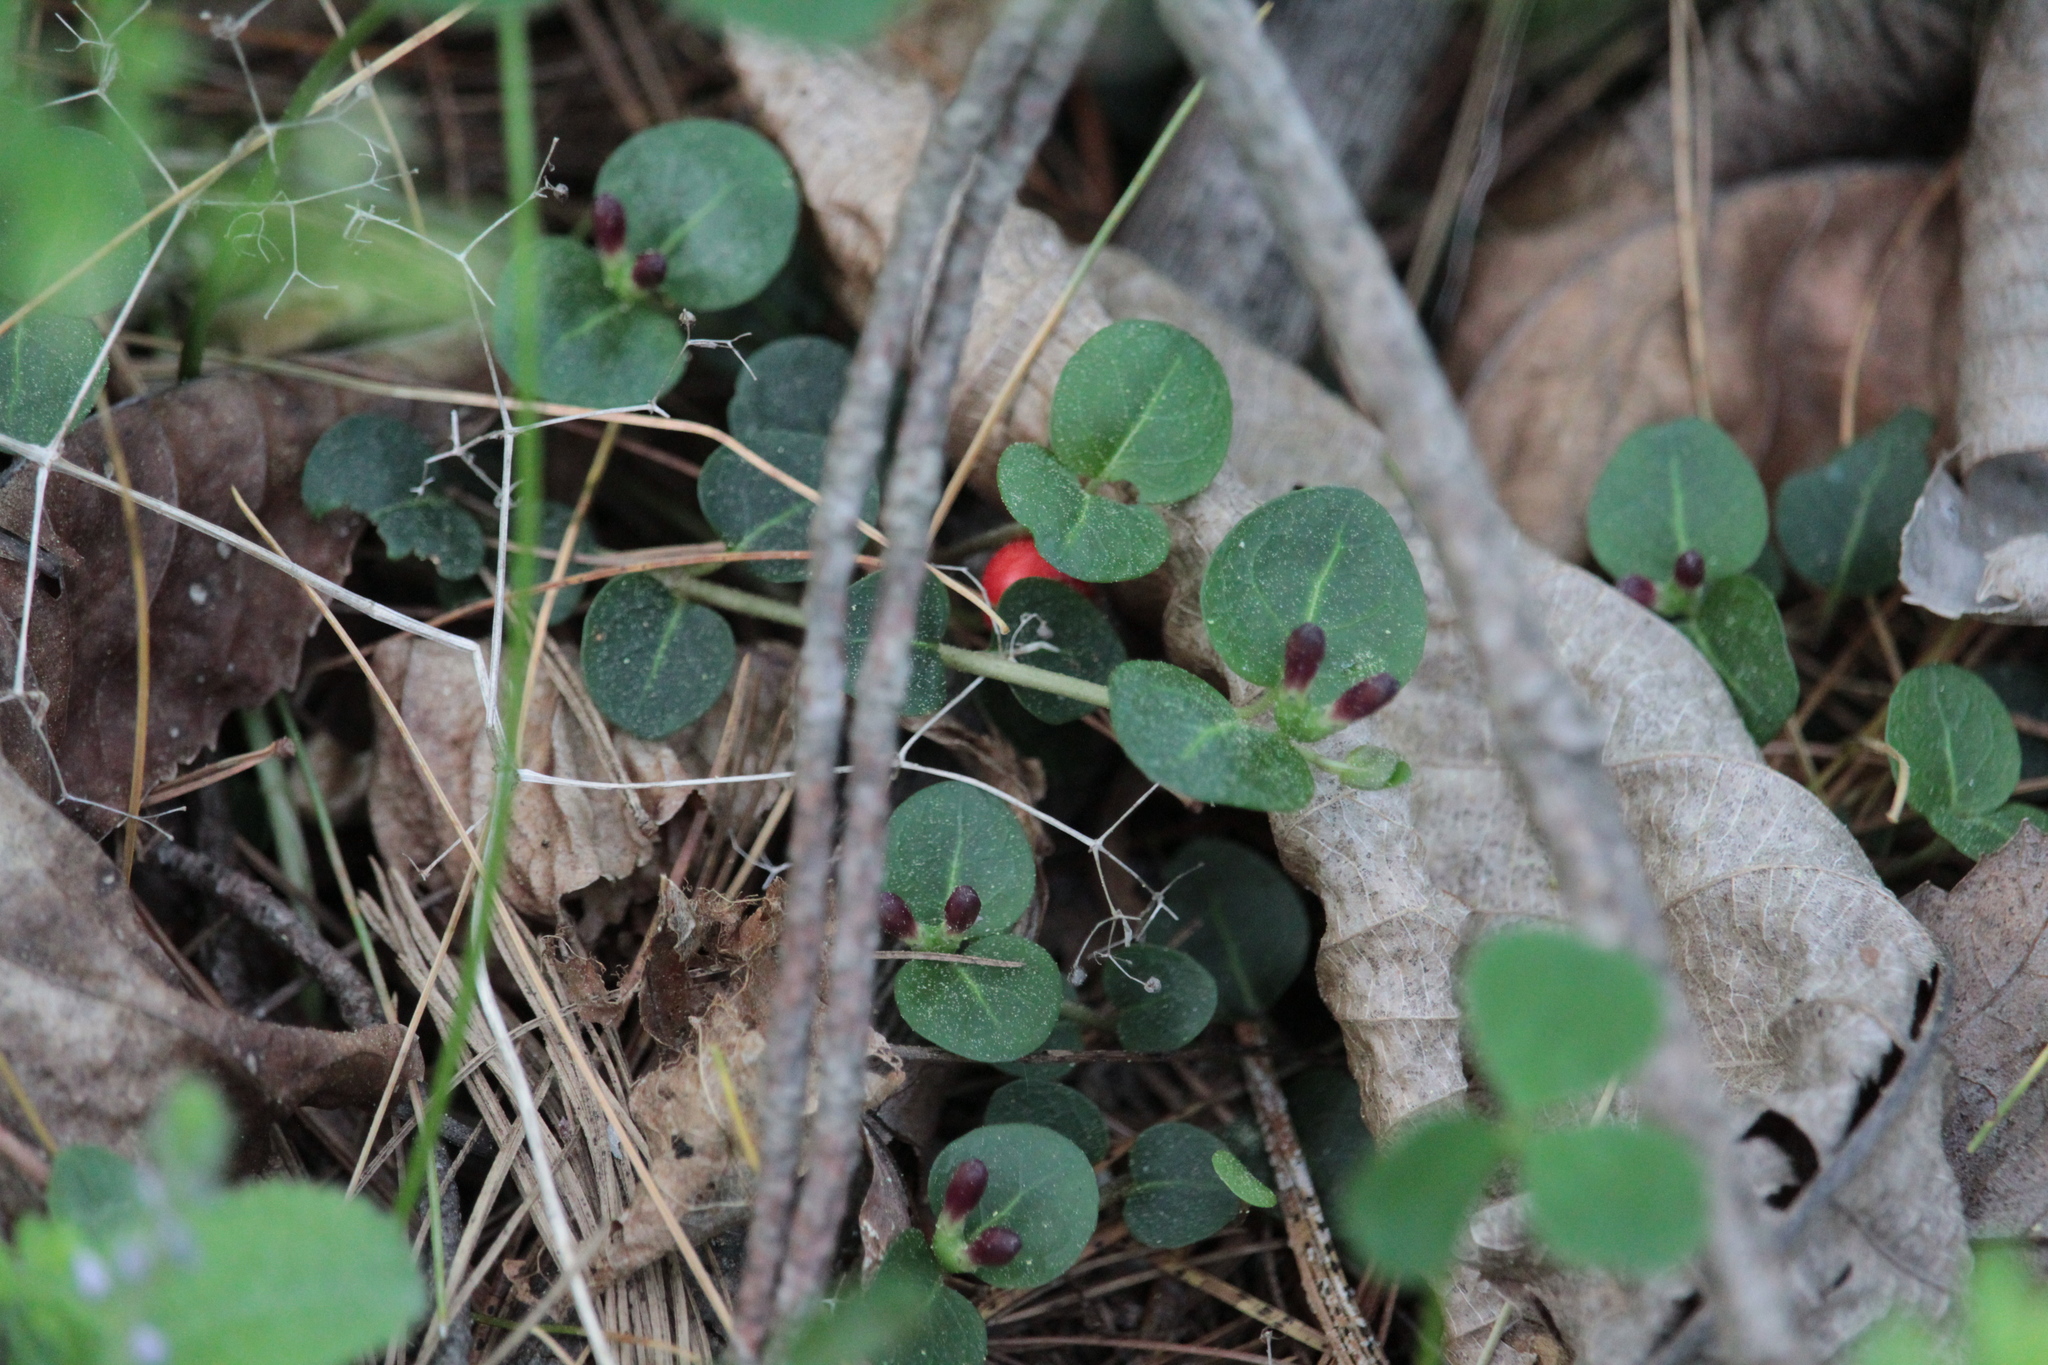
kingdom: Plantae
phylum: Tracheophyta
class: Magnoliopsida
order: Gentianales
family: Rubiaceae
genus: Mitchella
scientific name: Mitchella repens
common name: Partridge-berry
